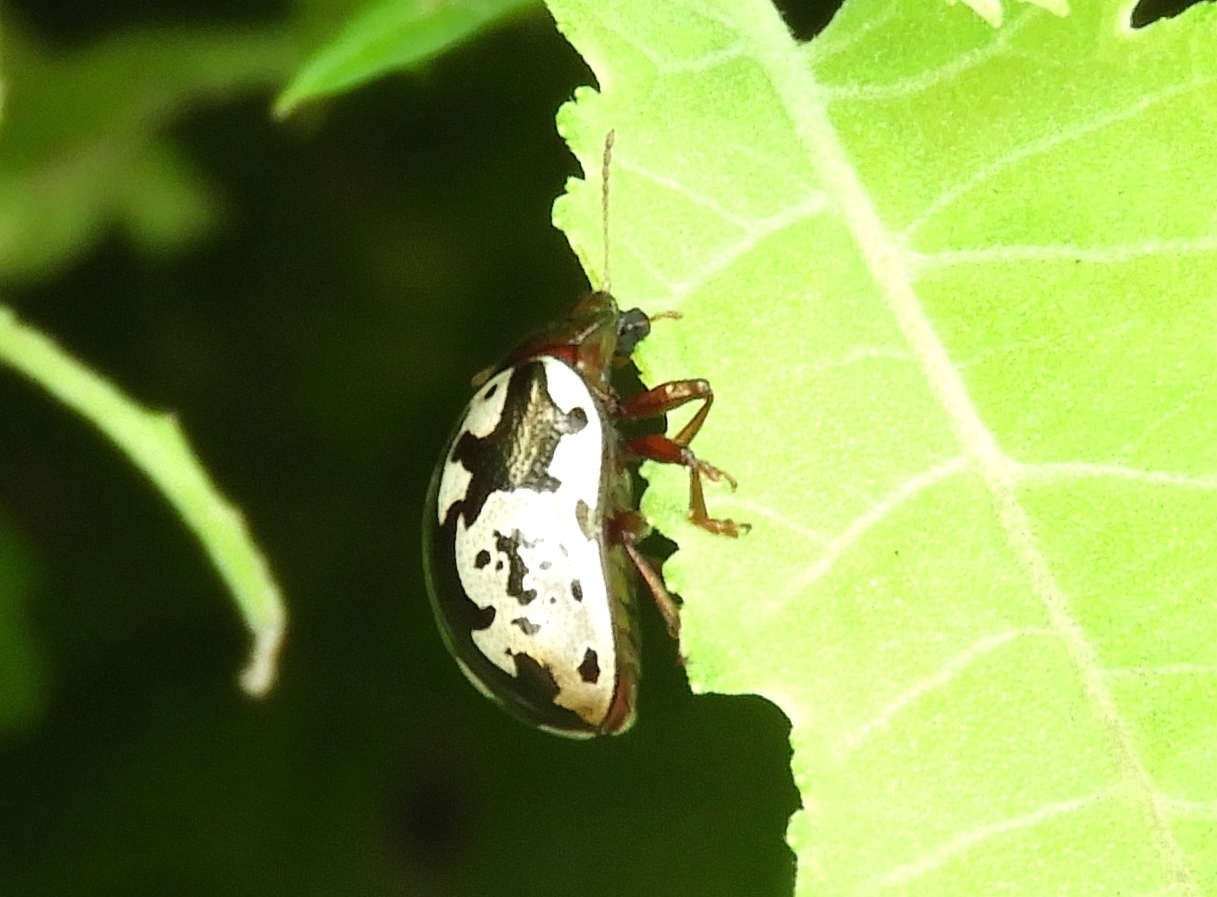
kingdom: Animalia
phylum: Arthropoda
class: Insecta
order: Coleoptera
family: Chrysomelidae
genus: Calligrapha
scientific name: Calligrapha intermedia
